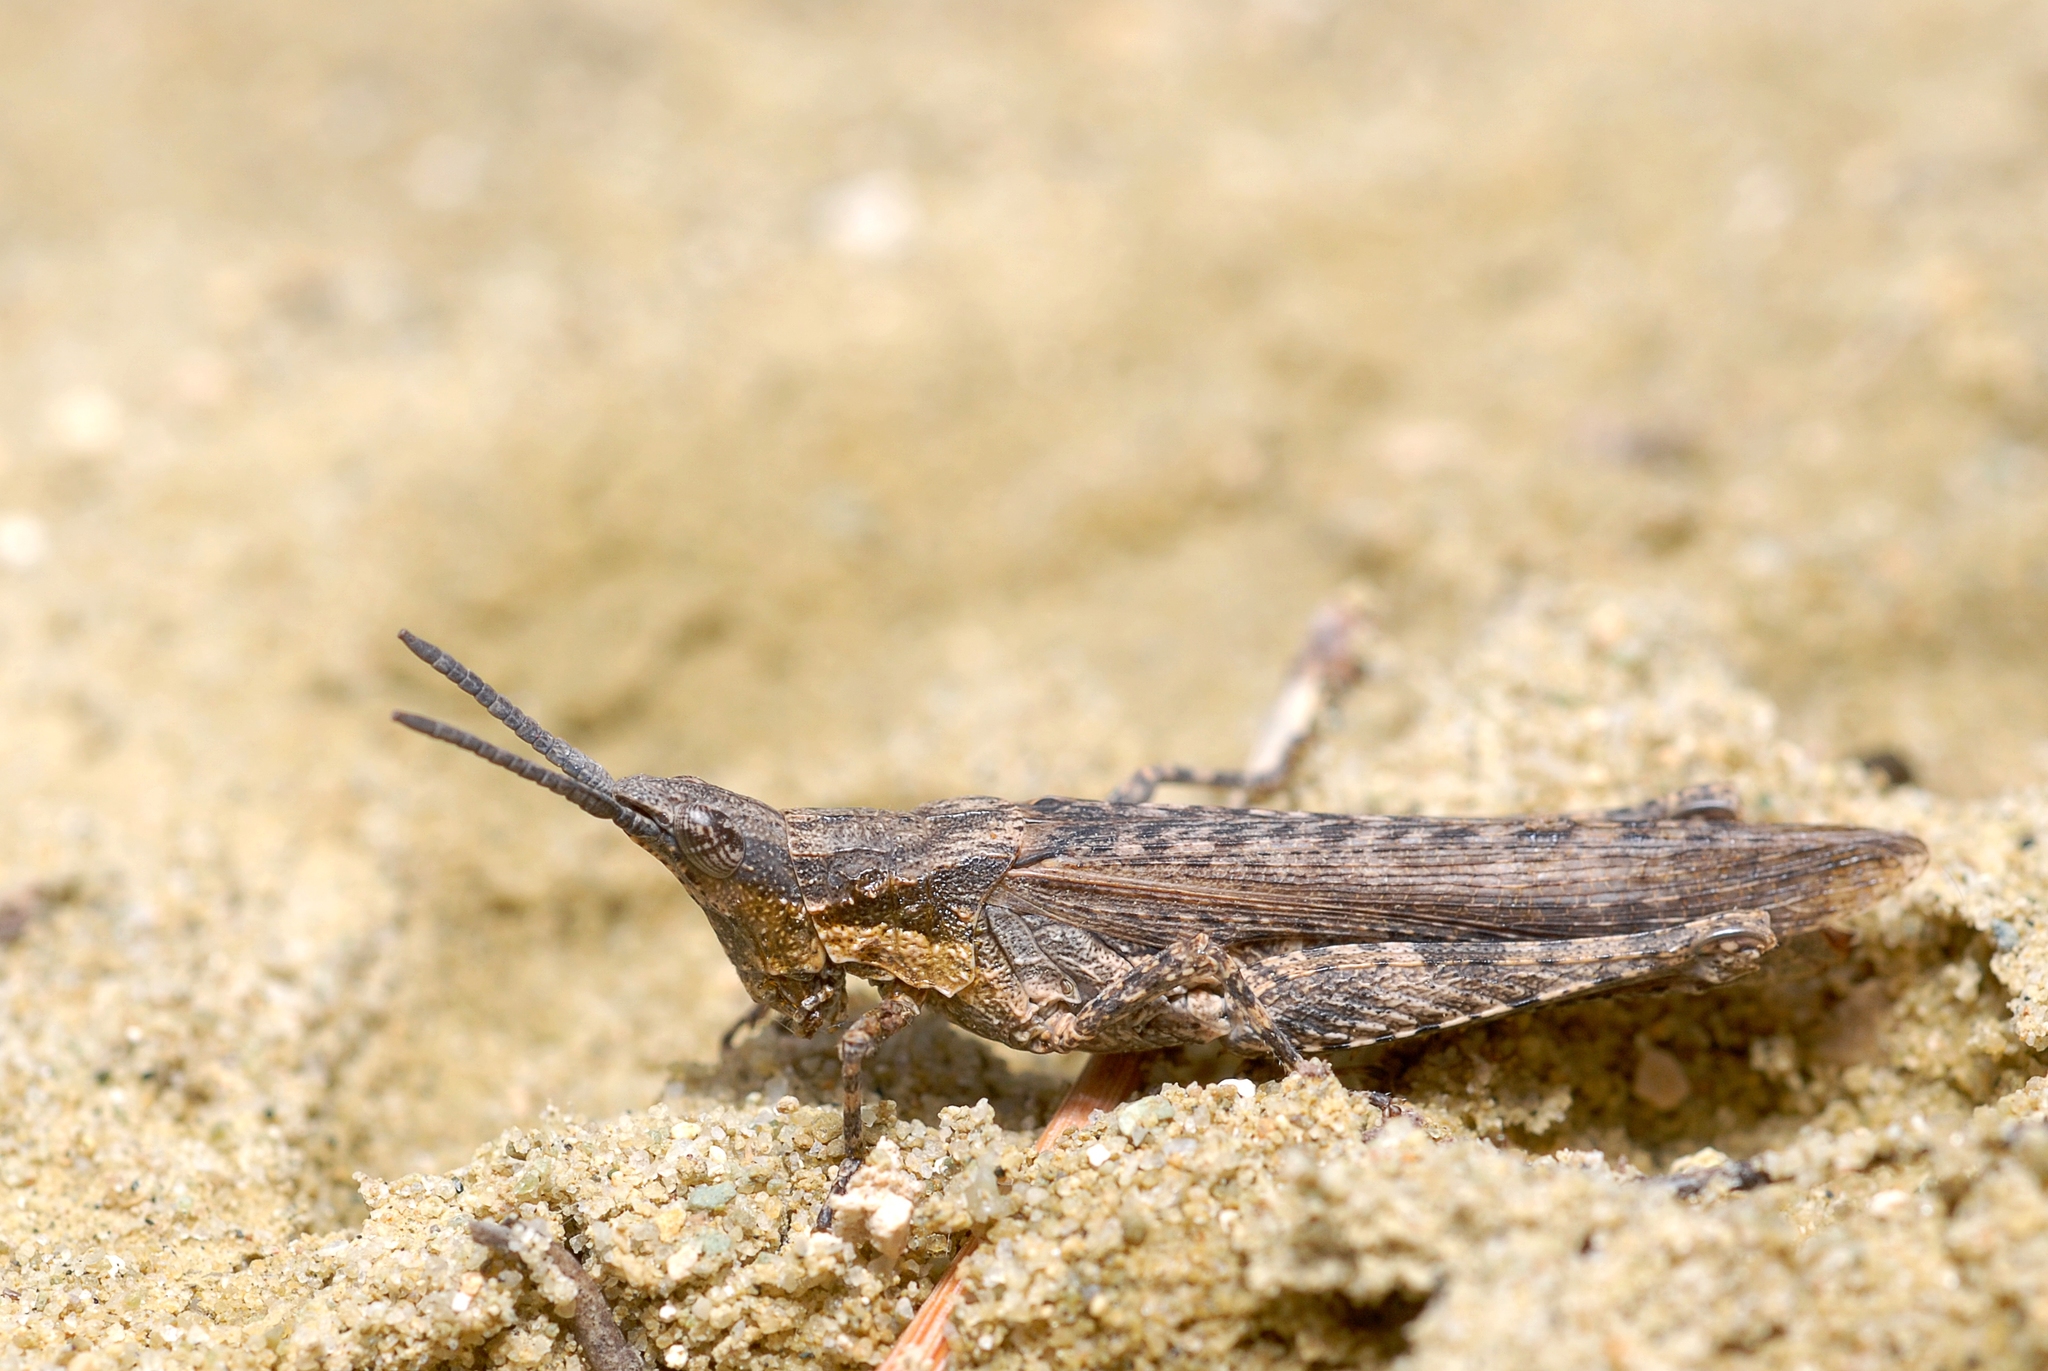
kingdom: Animalia
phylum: Arthropoda
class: Insecta
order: Orthoptera
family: Pyrgomorphidae
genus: Pyrgomorpha
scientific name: Pyrgomorpha conica
